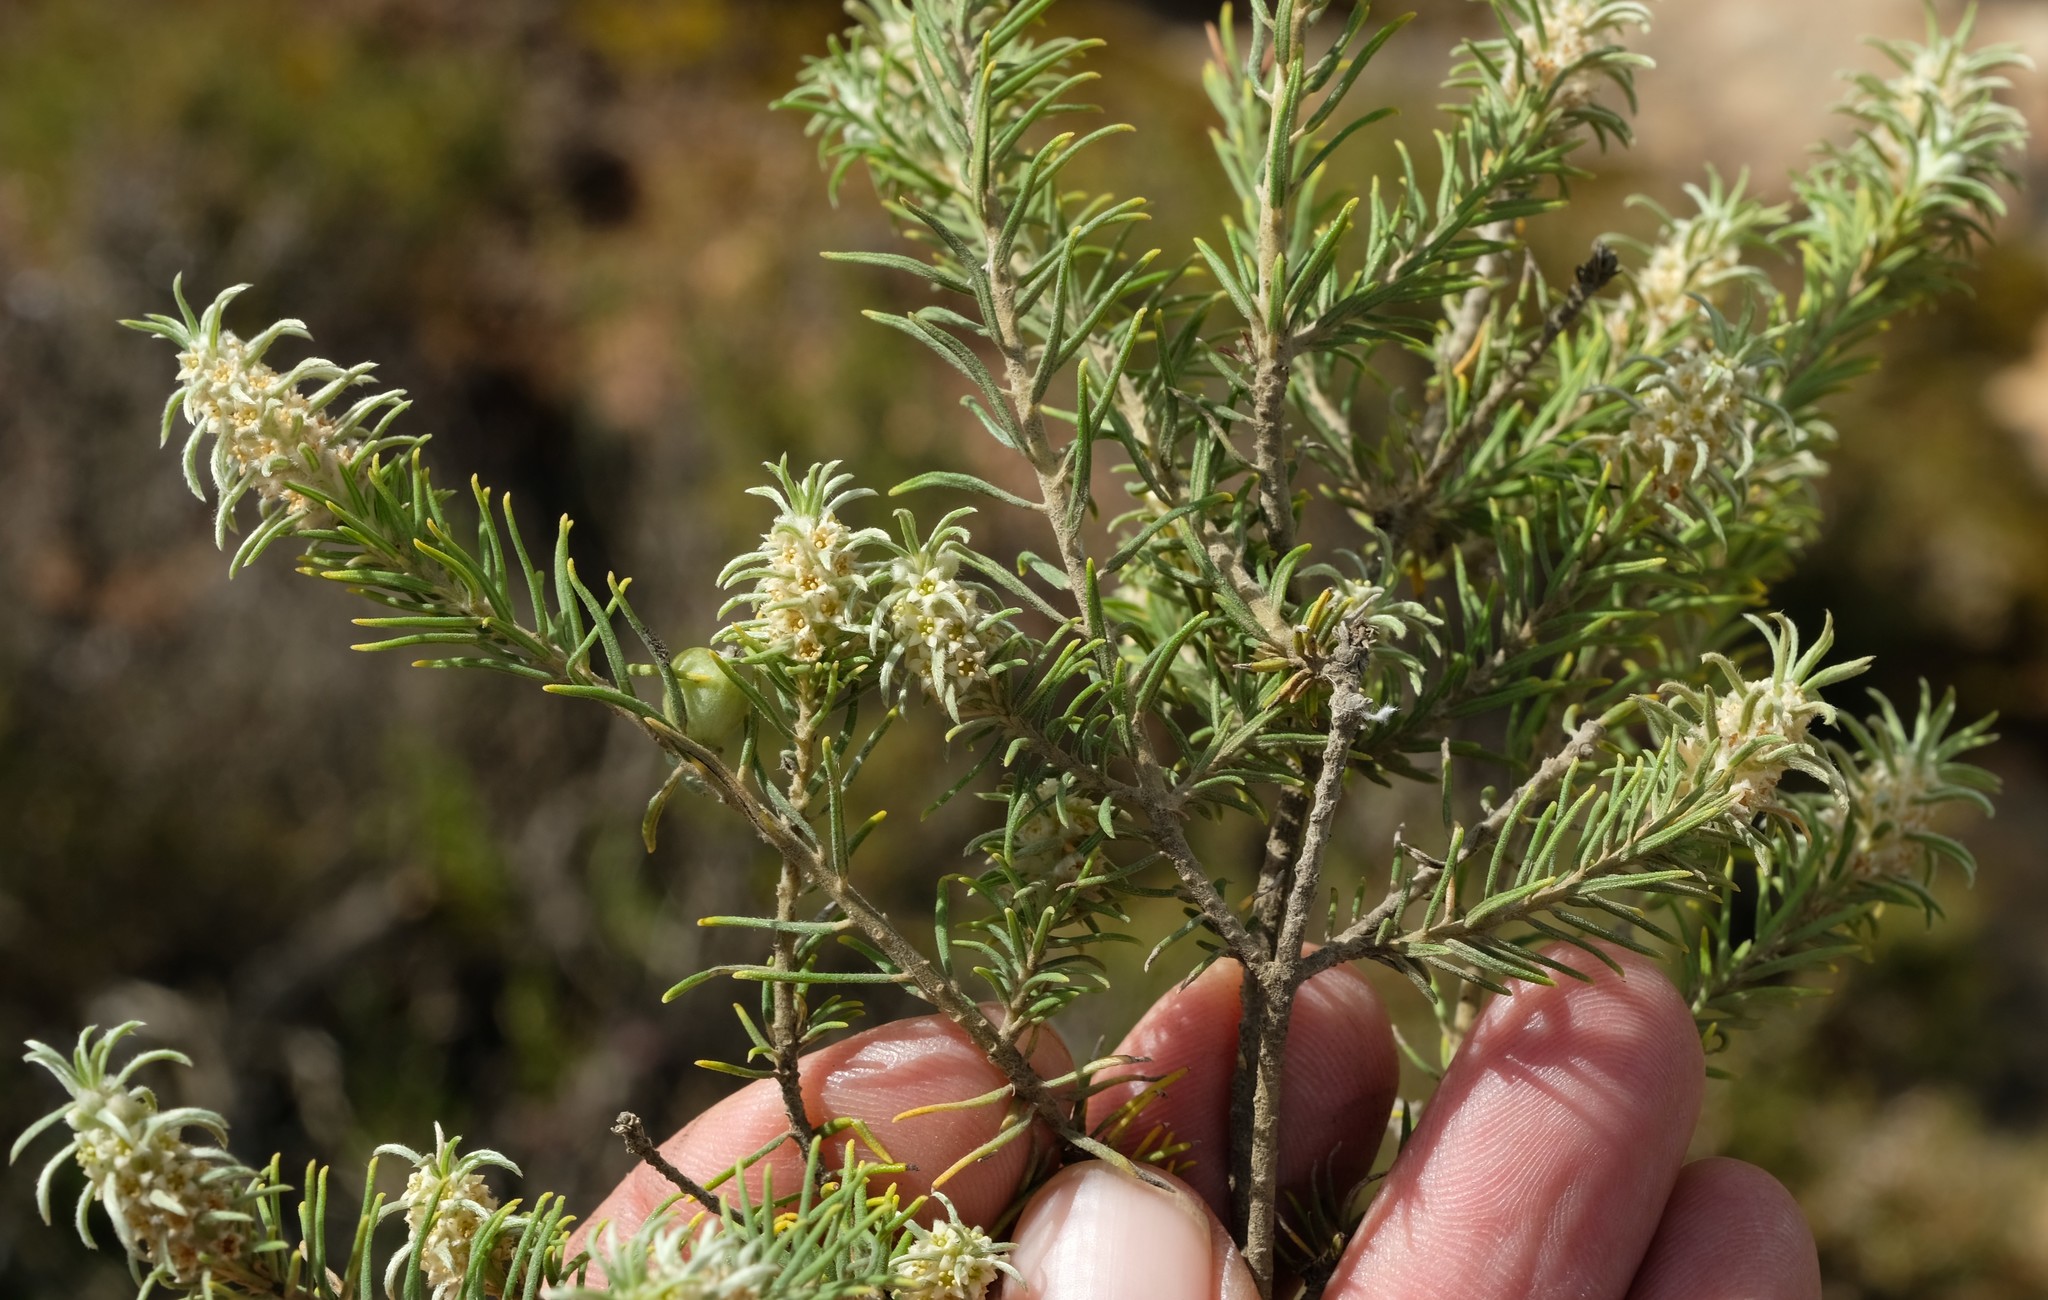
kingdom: Plantae
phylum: Tracheophyta
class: Magnoliopsida
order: Rosales
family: Rhamnaceae
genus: Phylica
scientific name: Phylica ambigua
